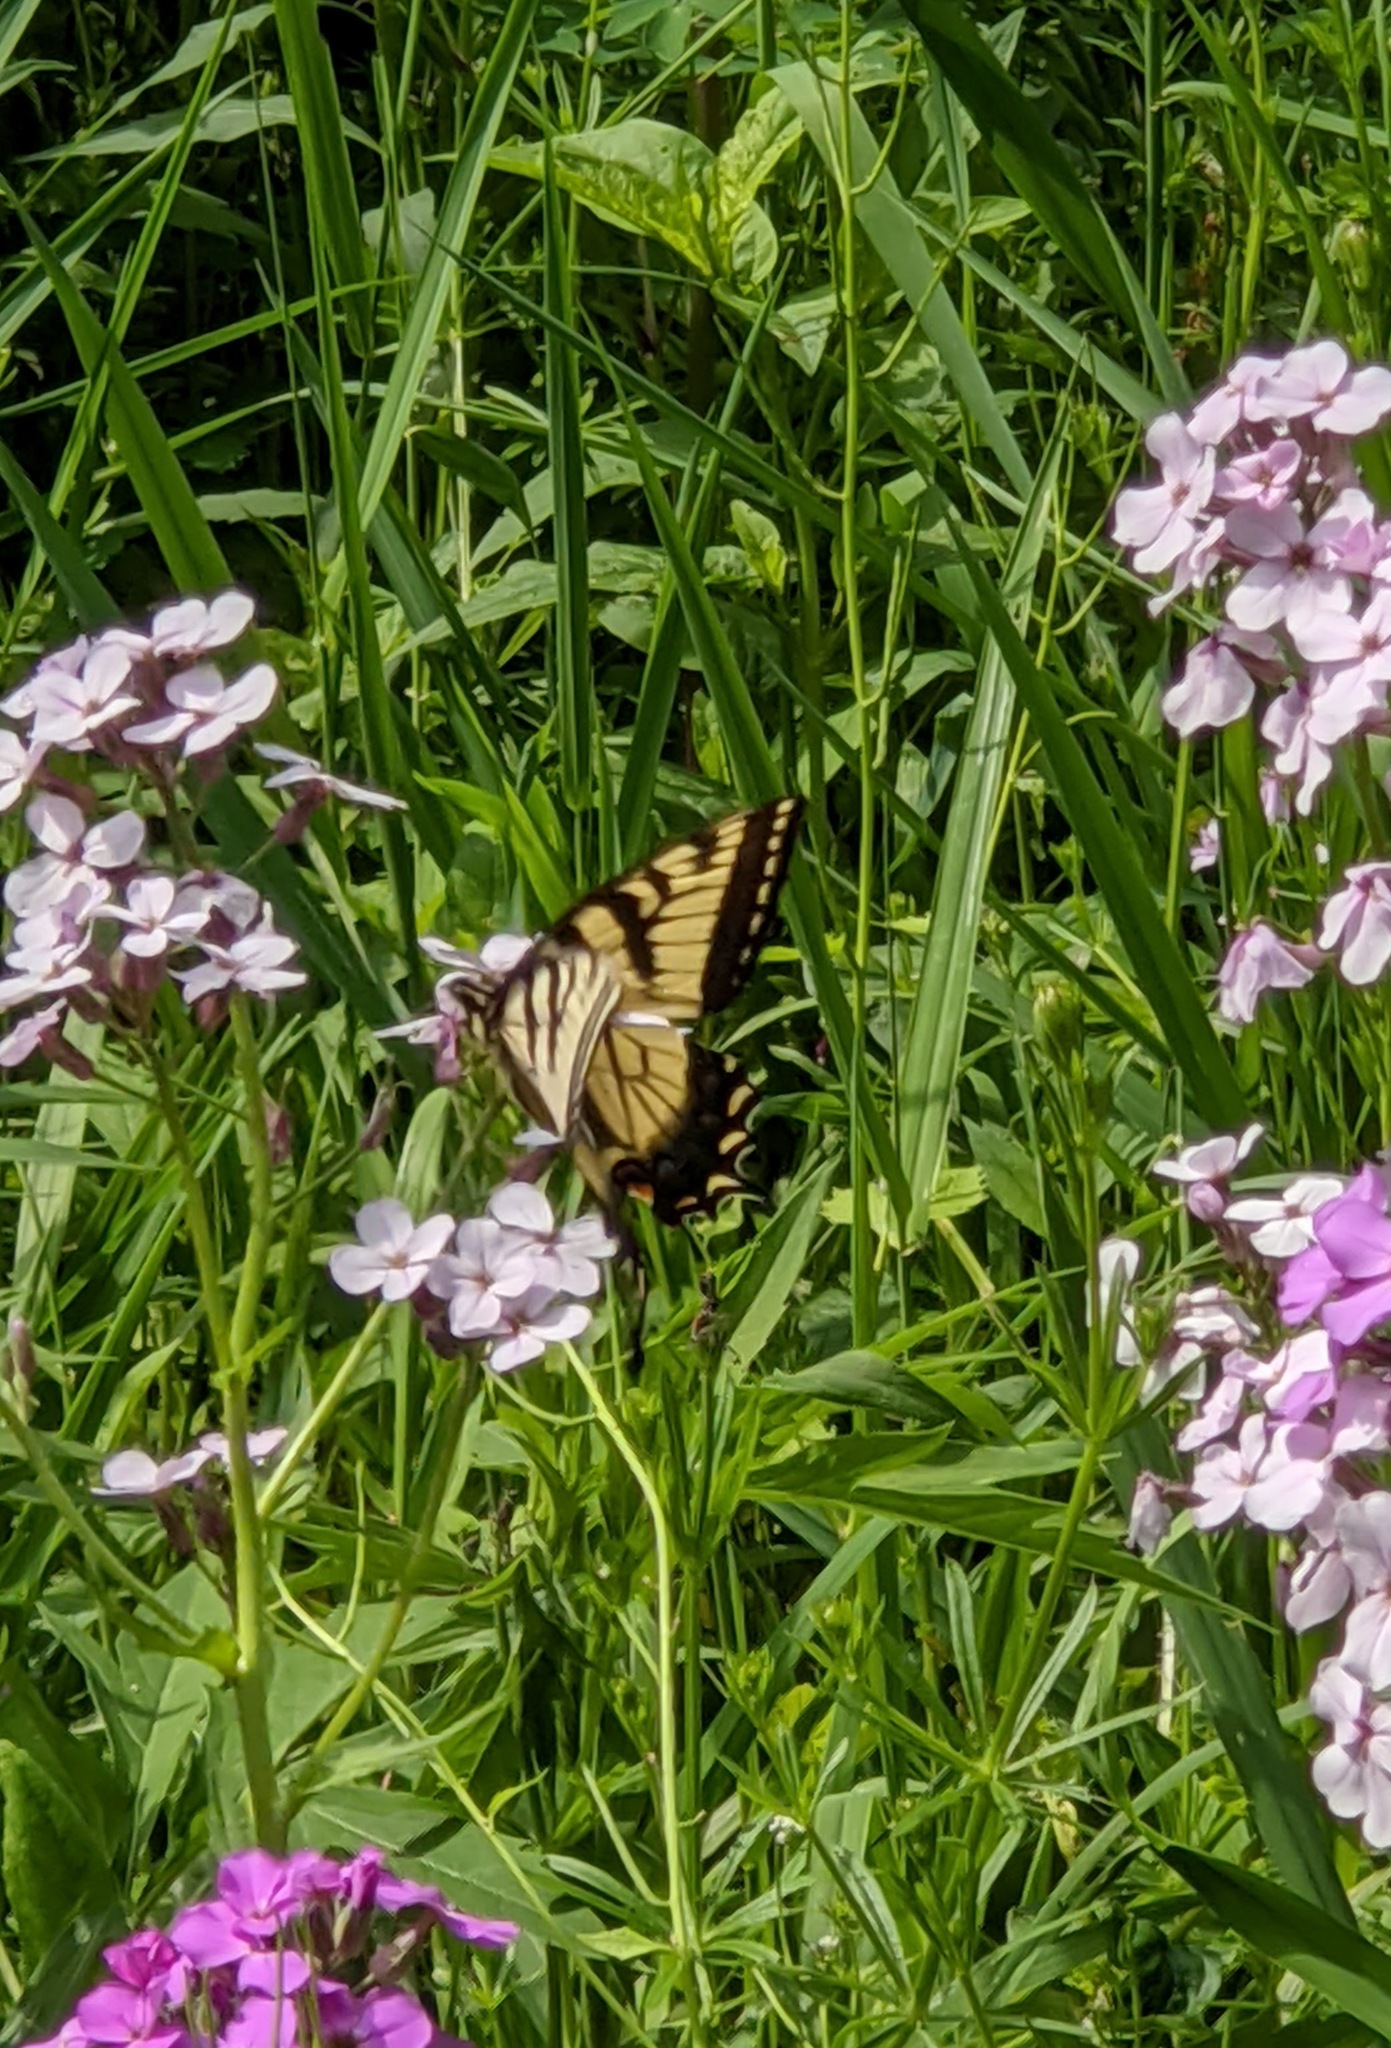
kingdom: Animalia
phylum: Arthropoda
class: Insecta
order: Lepidoptera
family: Papilionidae
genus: Papilio
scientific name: Papilio glaucus
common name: Tiger swallowtail
